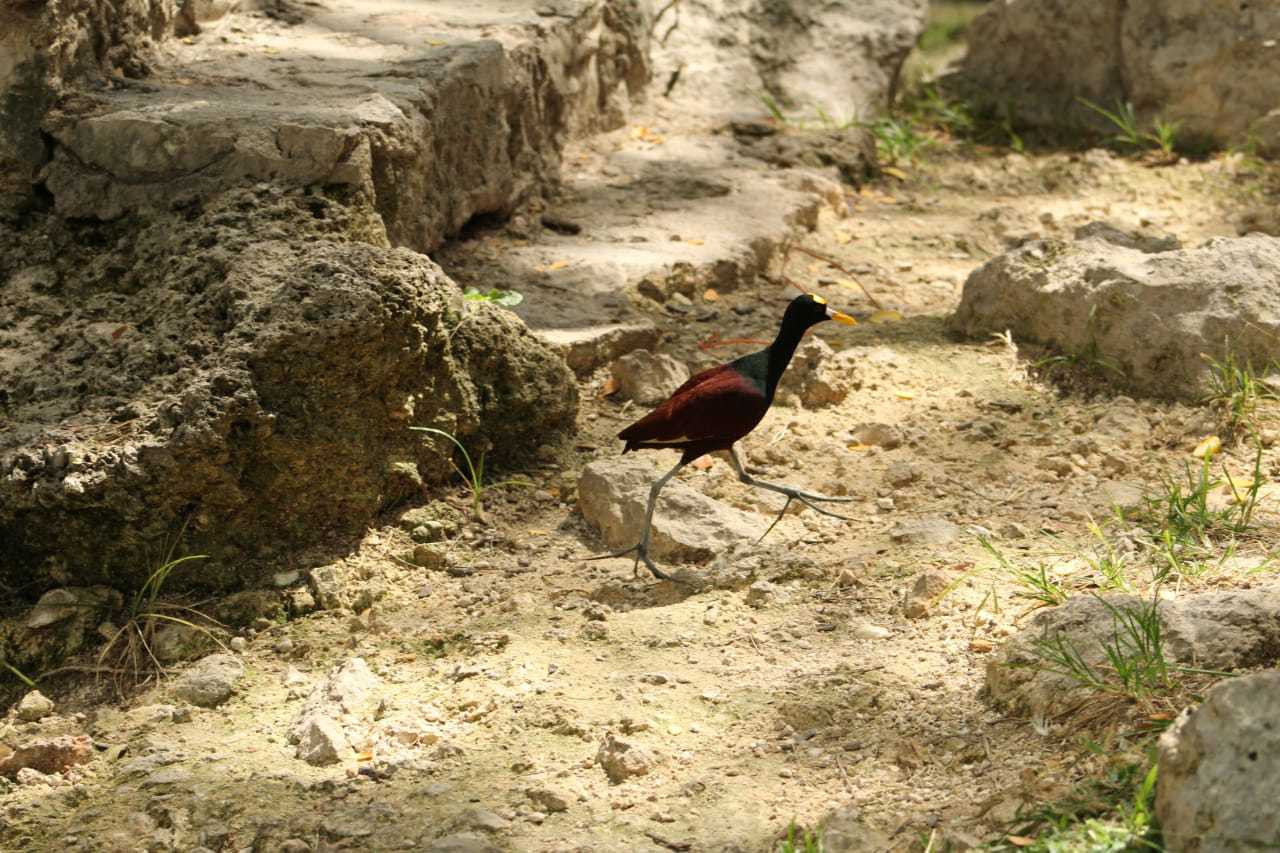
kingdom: Animalia
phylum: Chordata
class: Aves
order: Charadriiformes
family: Jacanidae
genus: Jacana
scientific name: Jacana spinosa
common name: Northern jacana
